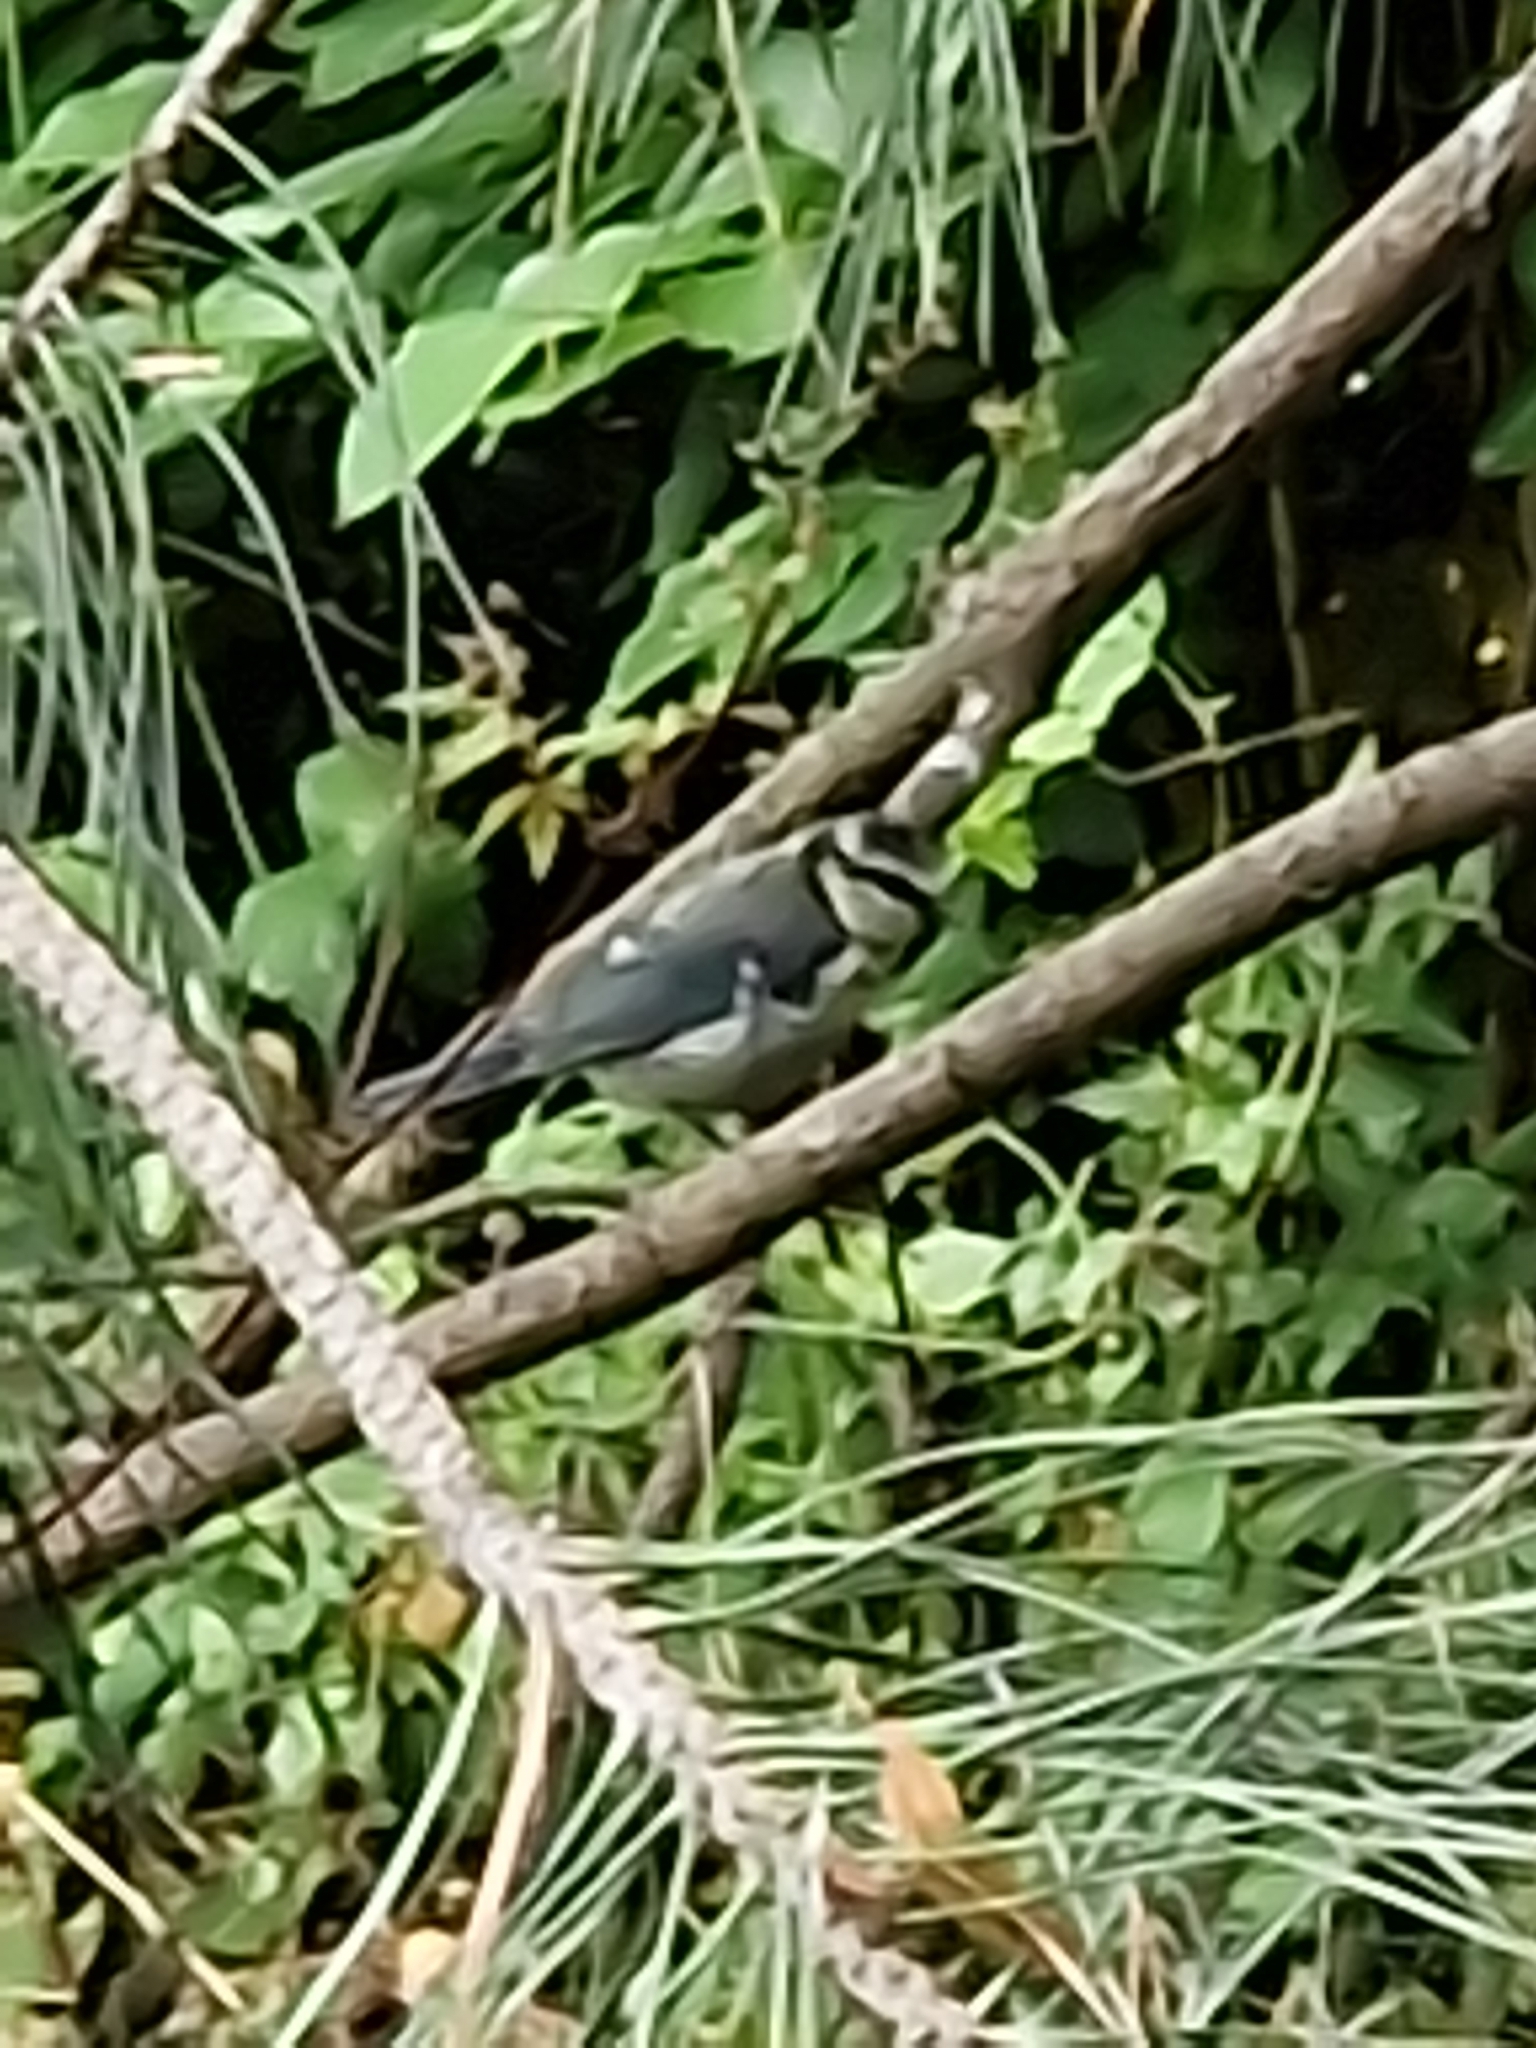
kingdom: Animalia
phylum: Chordata
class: Aves
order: Passeriformes
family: Paridae
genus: Cyanistes
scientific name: Cyanistes caeruleus
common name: Eurasian blue tit
